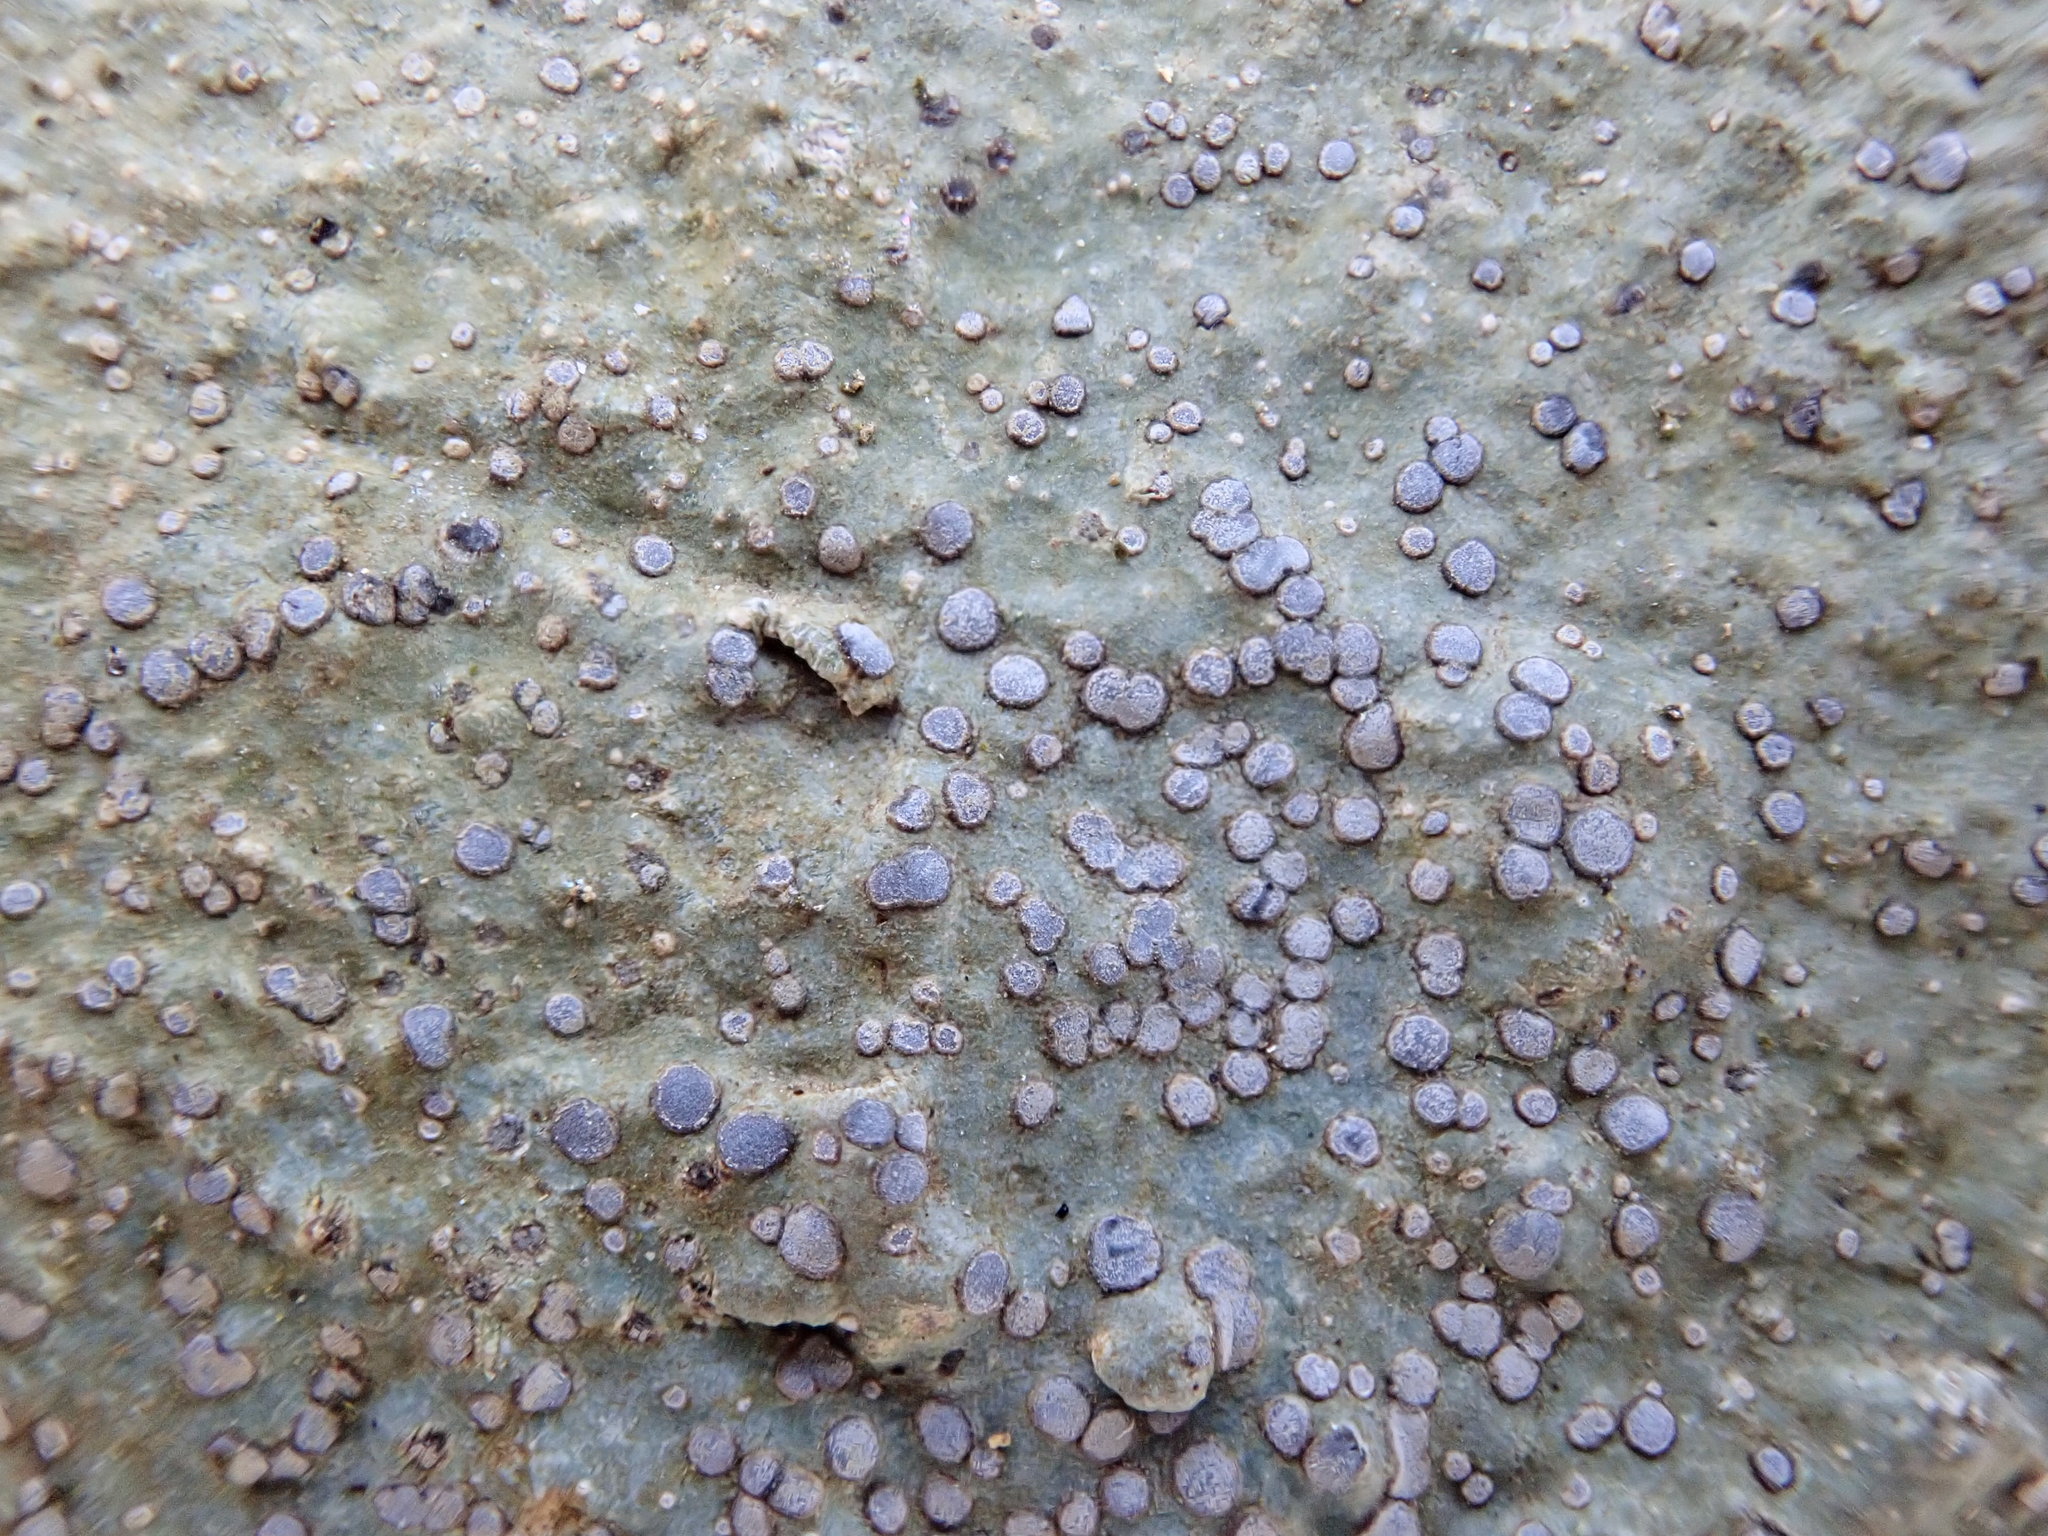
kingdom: Fungi
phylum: Ascomycota
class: Lecanoromycetes
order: Lecideales
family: Lecideaceae
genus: Porpidia
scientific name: Porpidia albocaerulescens
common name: Smokey-eyed boulder lichen
